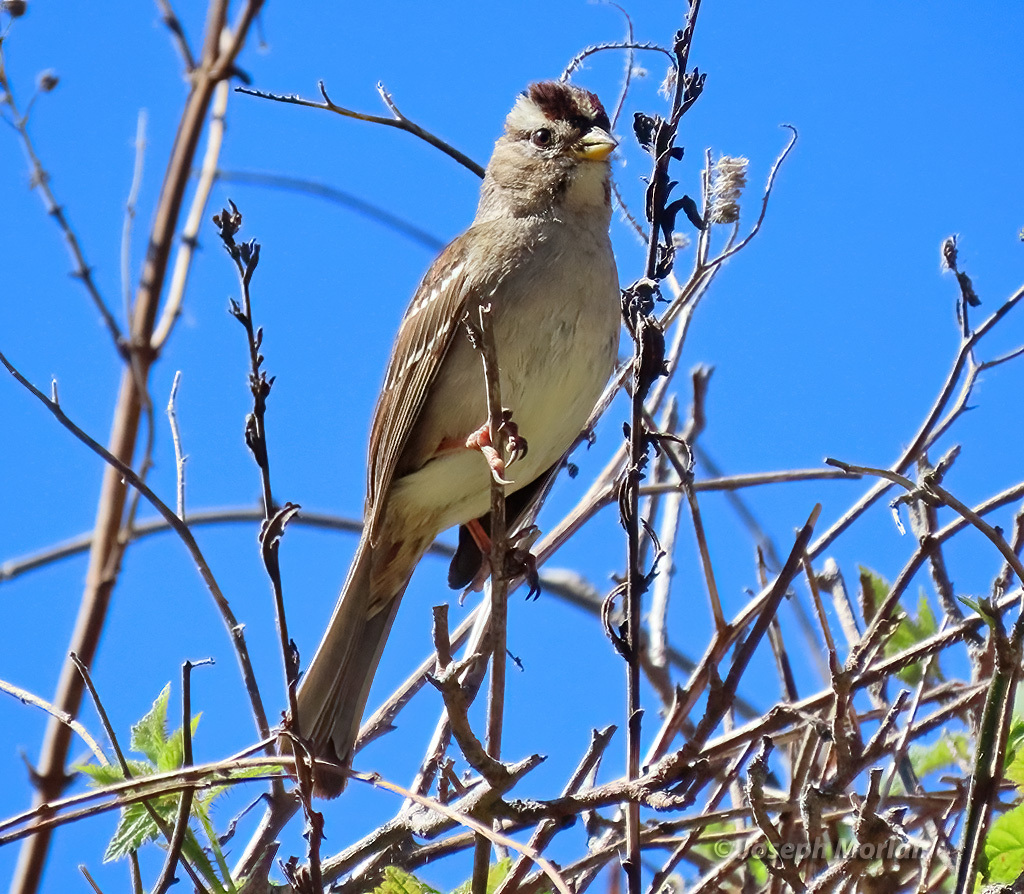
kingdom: Animalia
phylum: Chordata
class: Aves
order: Passeriformes
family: Passerellidae
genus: Zonotrichia
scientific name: Zonotrichia leucophrys
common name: White-crowned sparrow
